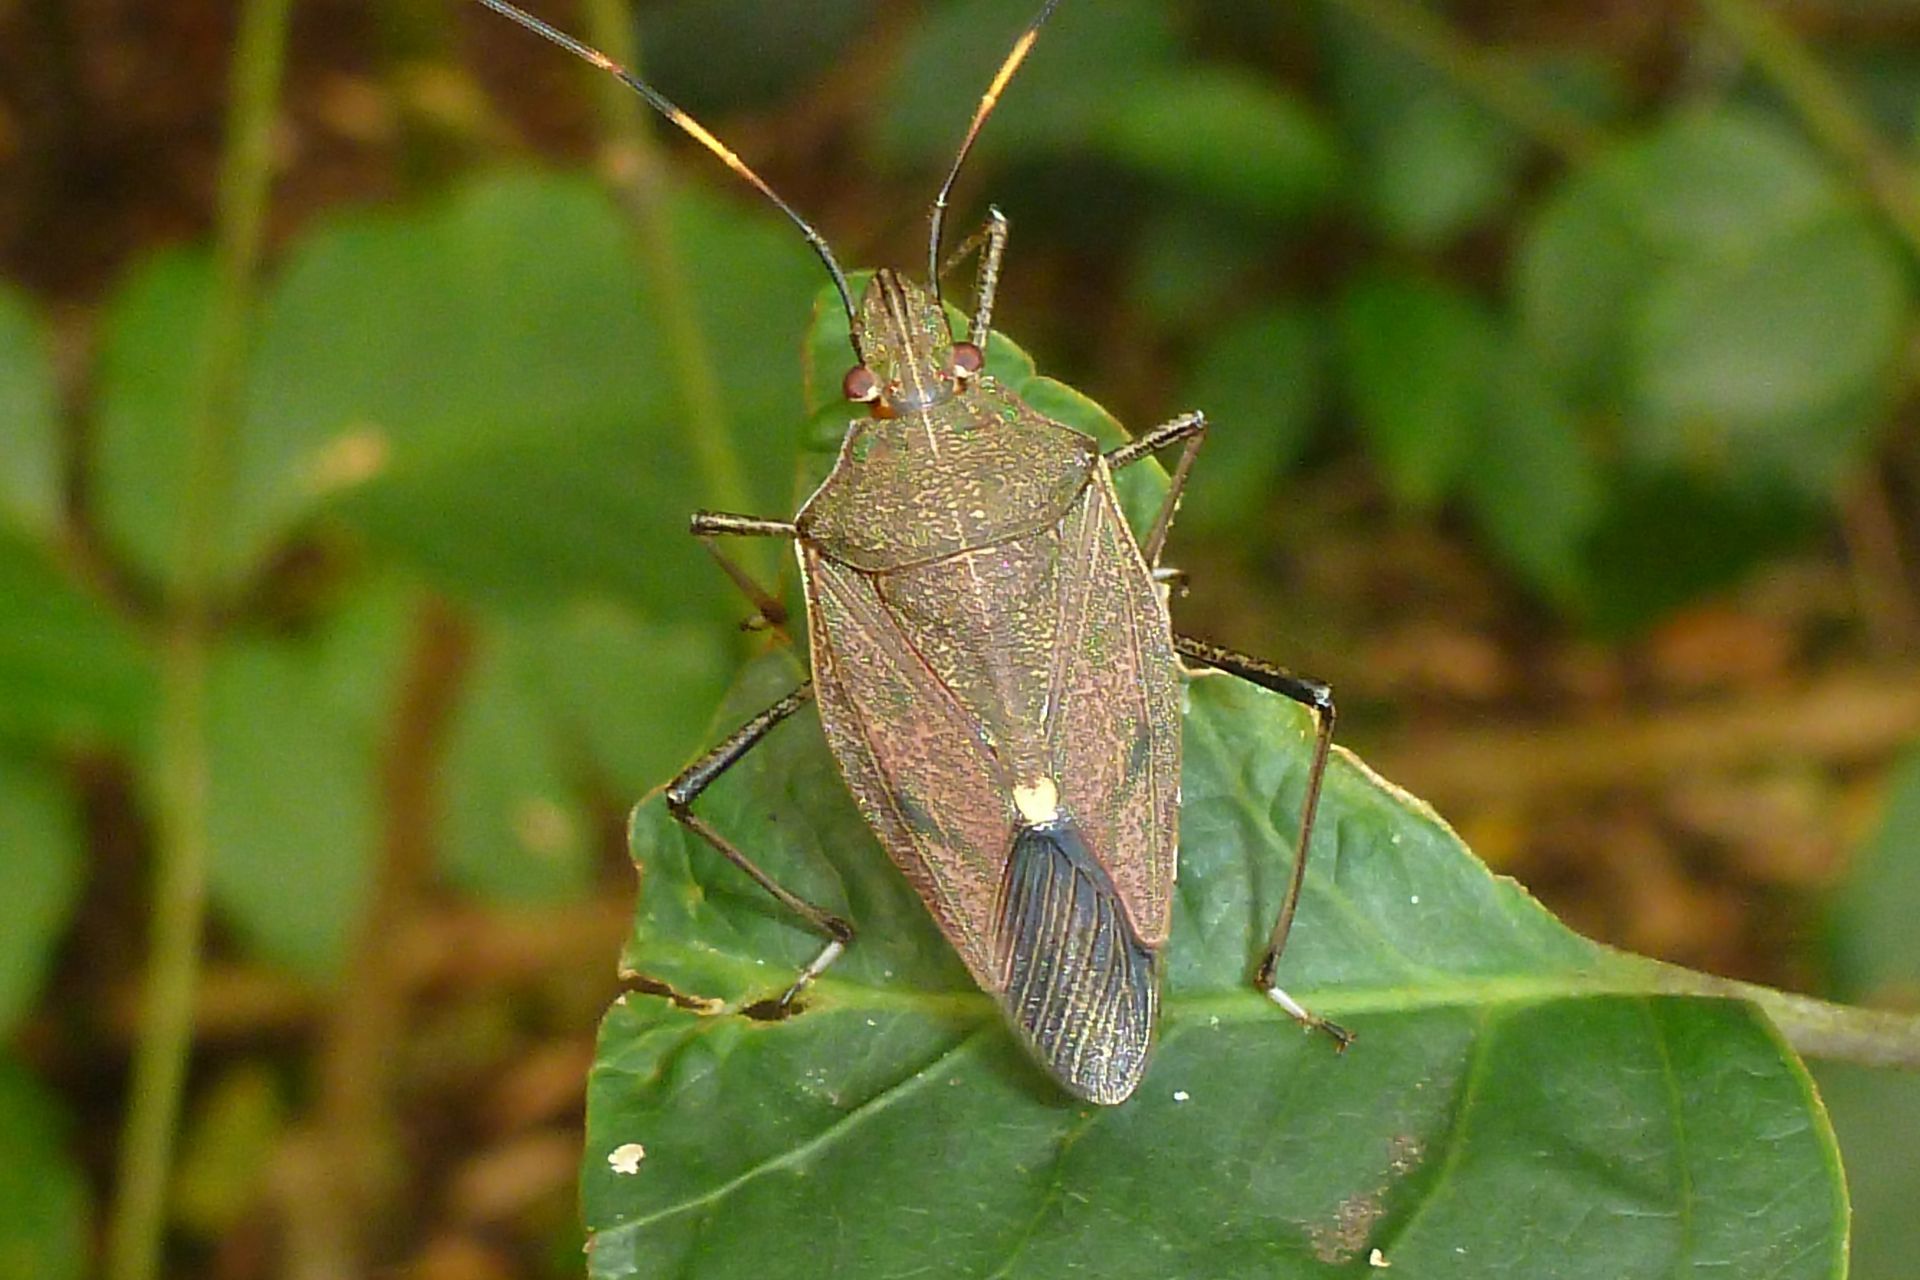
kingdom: Animalia
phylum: Arthropoda
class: Insecta
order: Hemiptera
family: Pentatomidae
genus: Poecilometis
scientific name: Poecilometis
